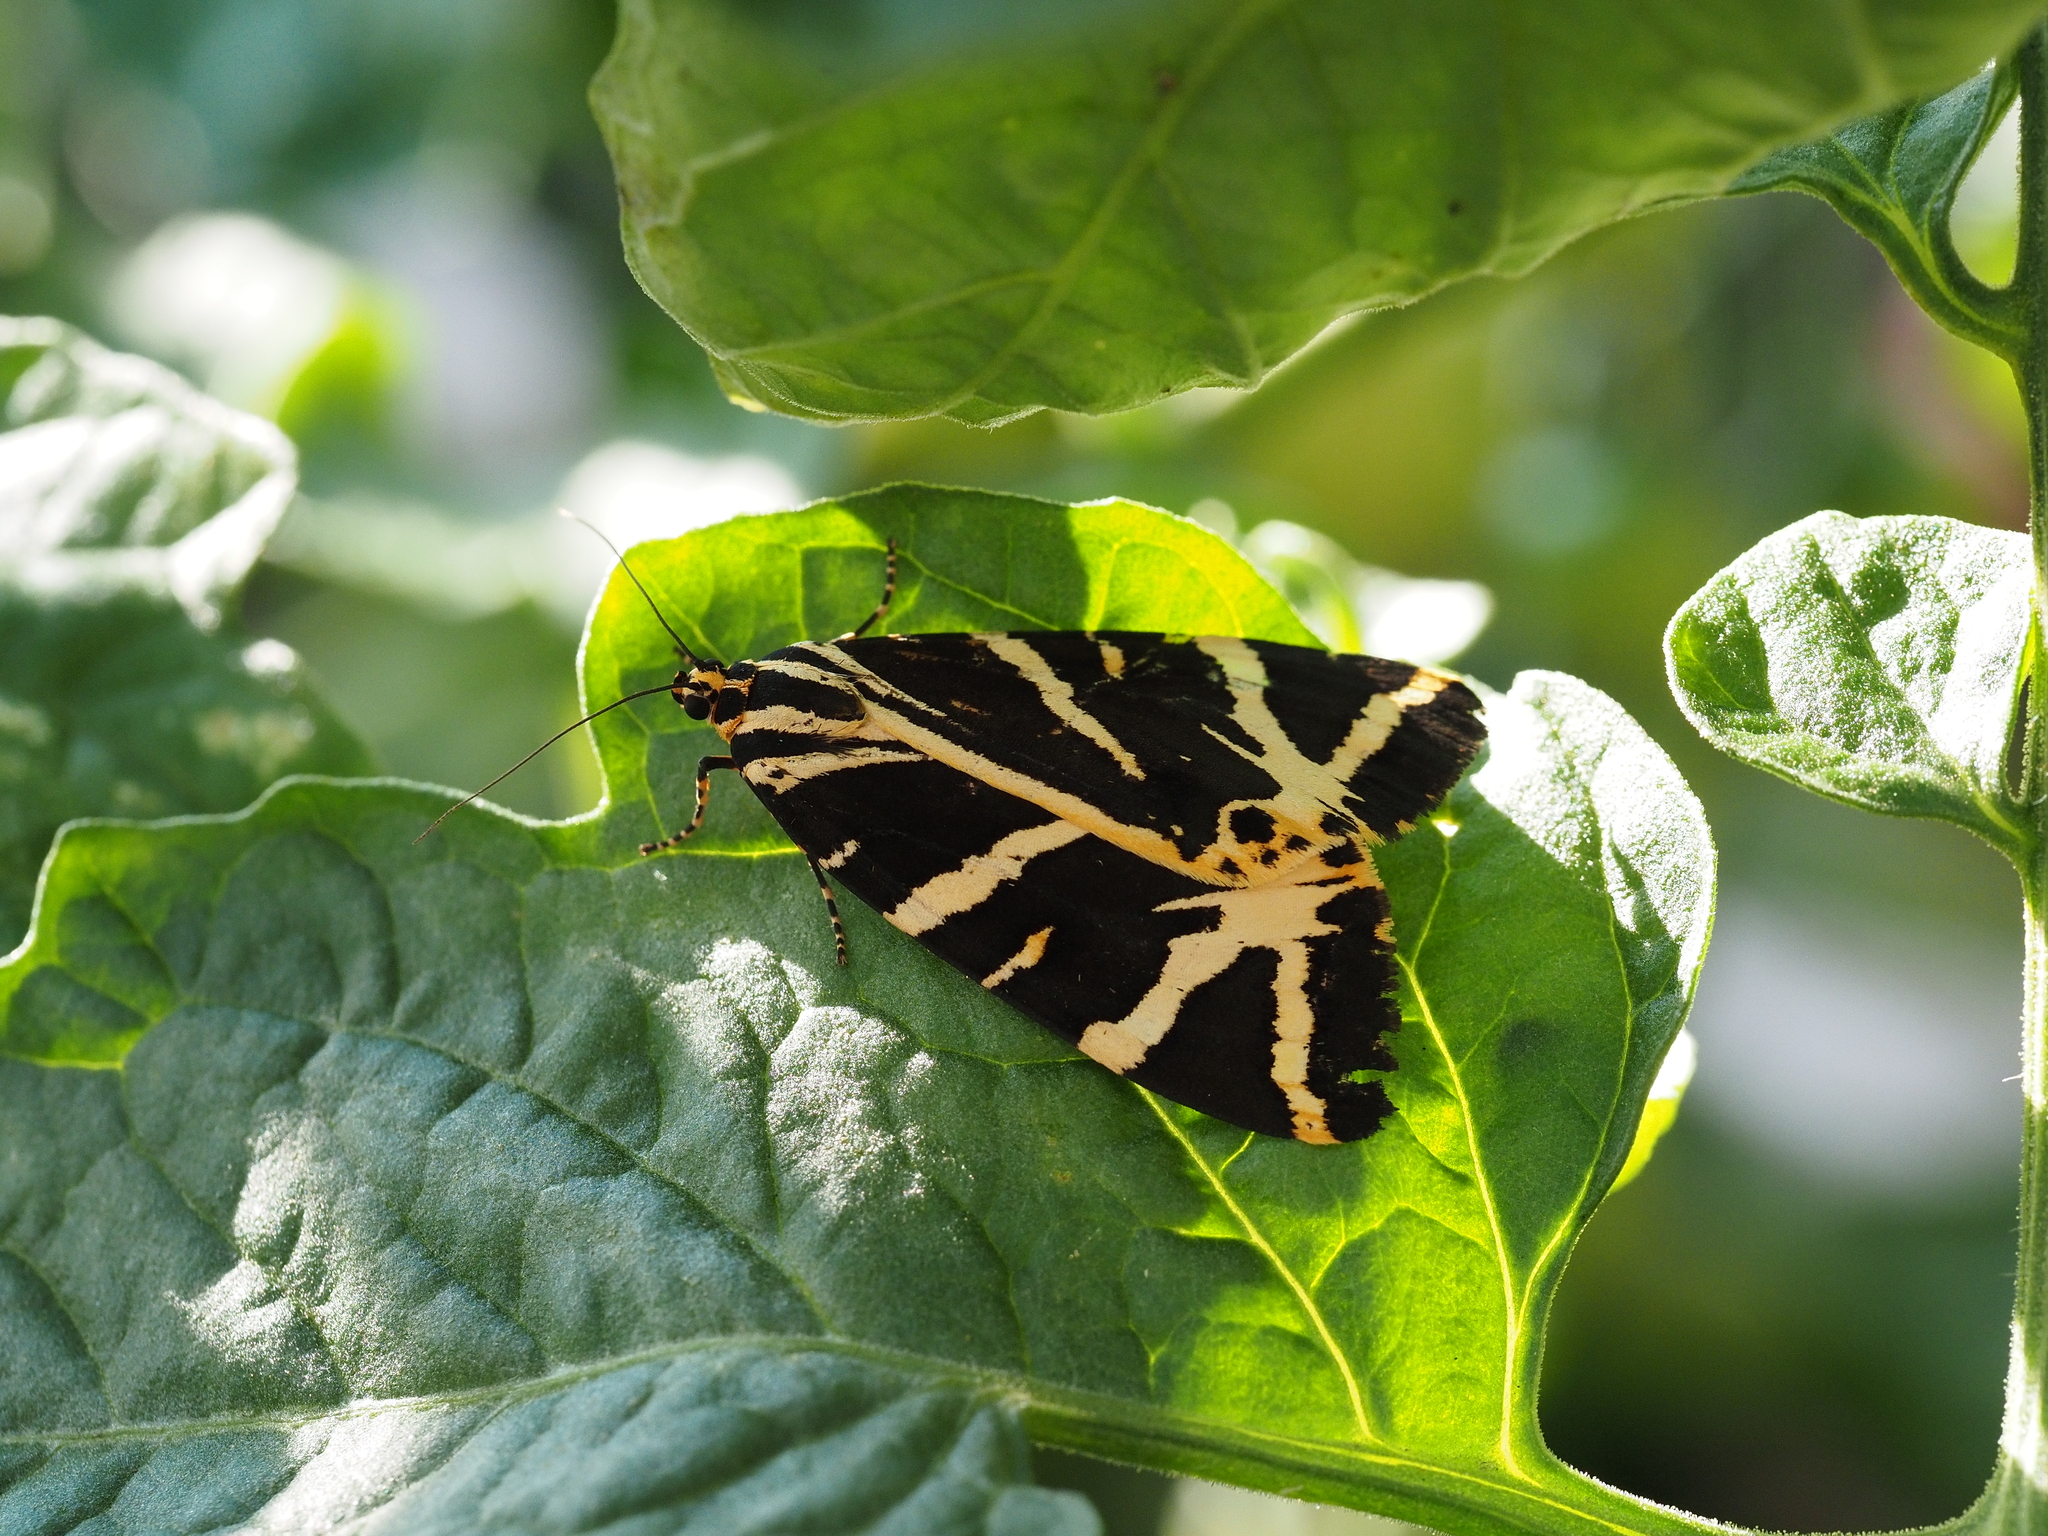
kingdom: Animalia
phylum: Arthropoda
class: Insecta
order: Lepidoptera
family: Erebidae
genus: Euplagia
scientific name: Euplagia quadripunctaria
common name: Jersey tiger
